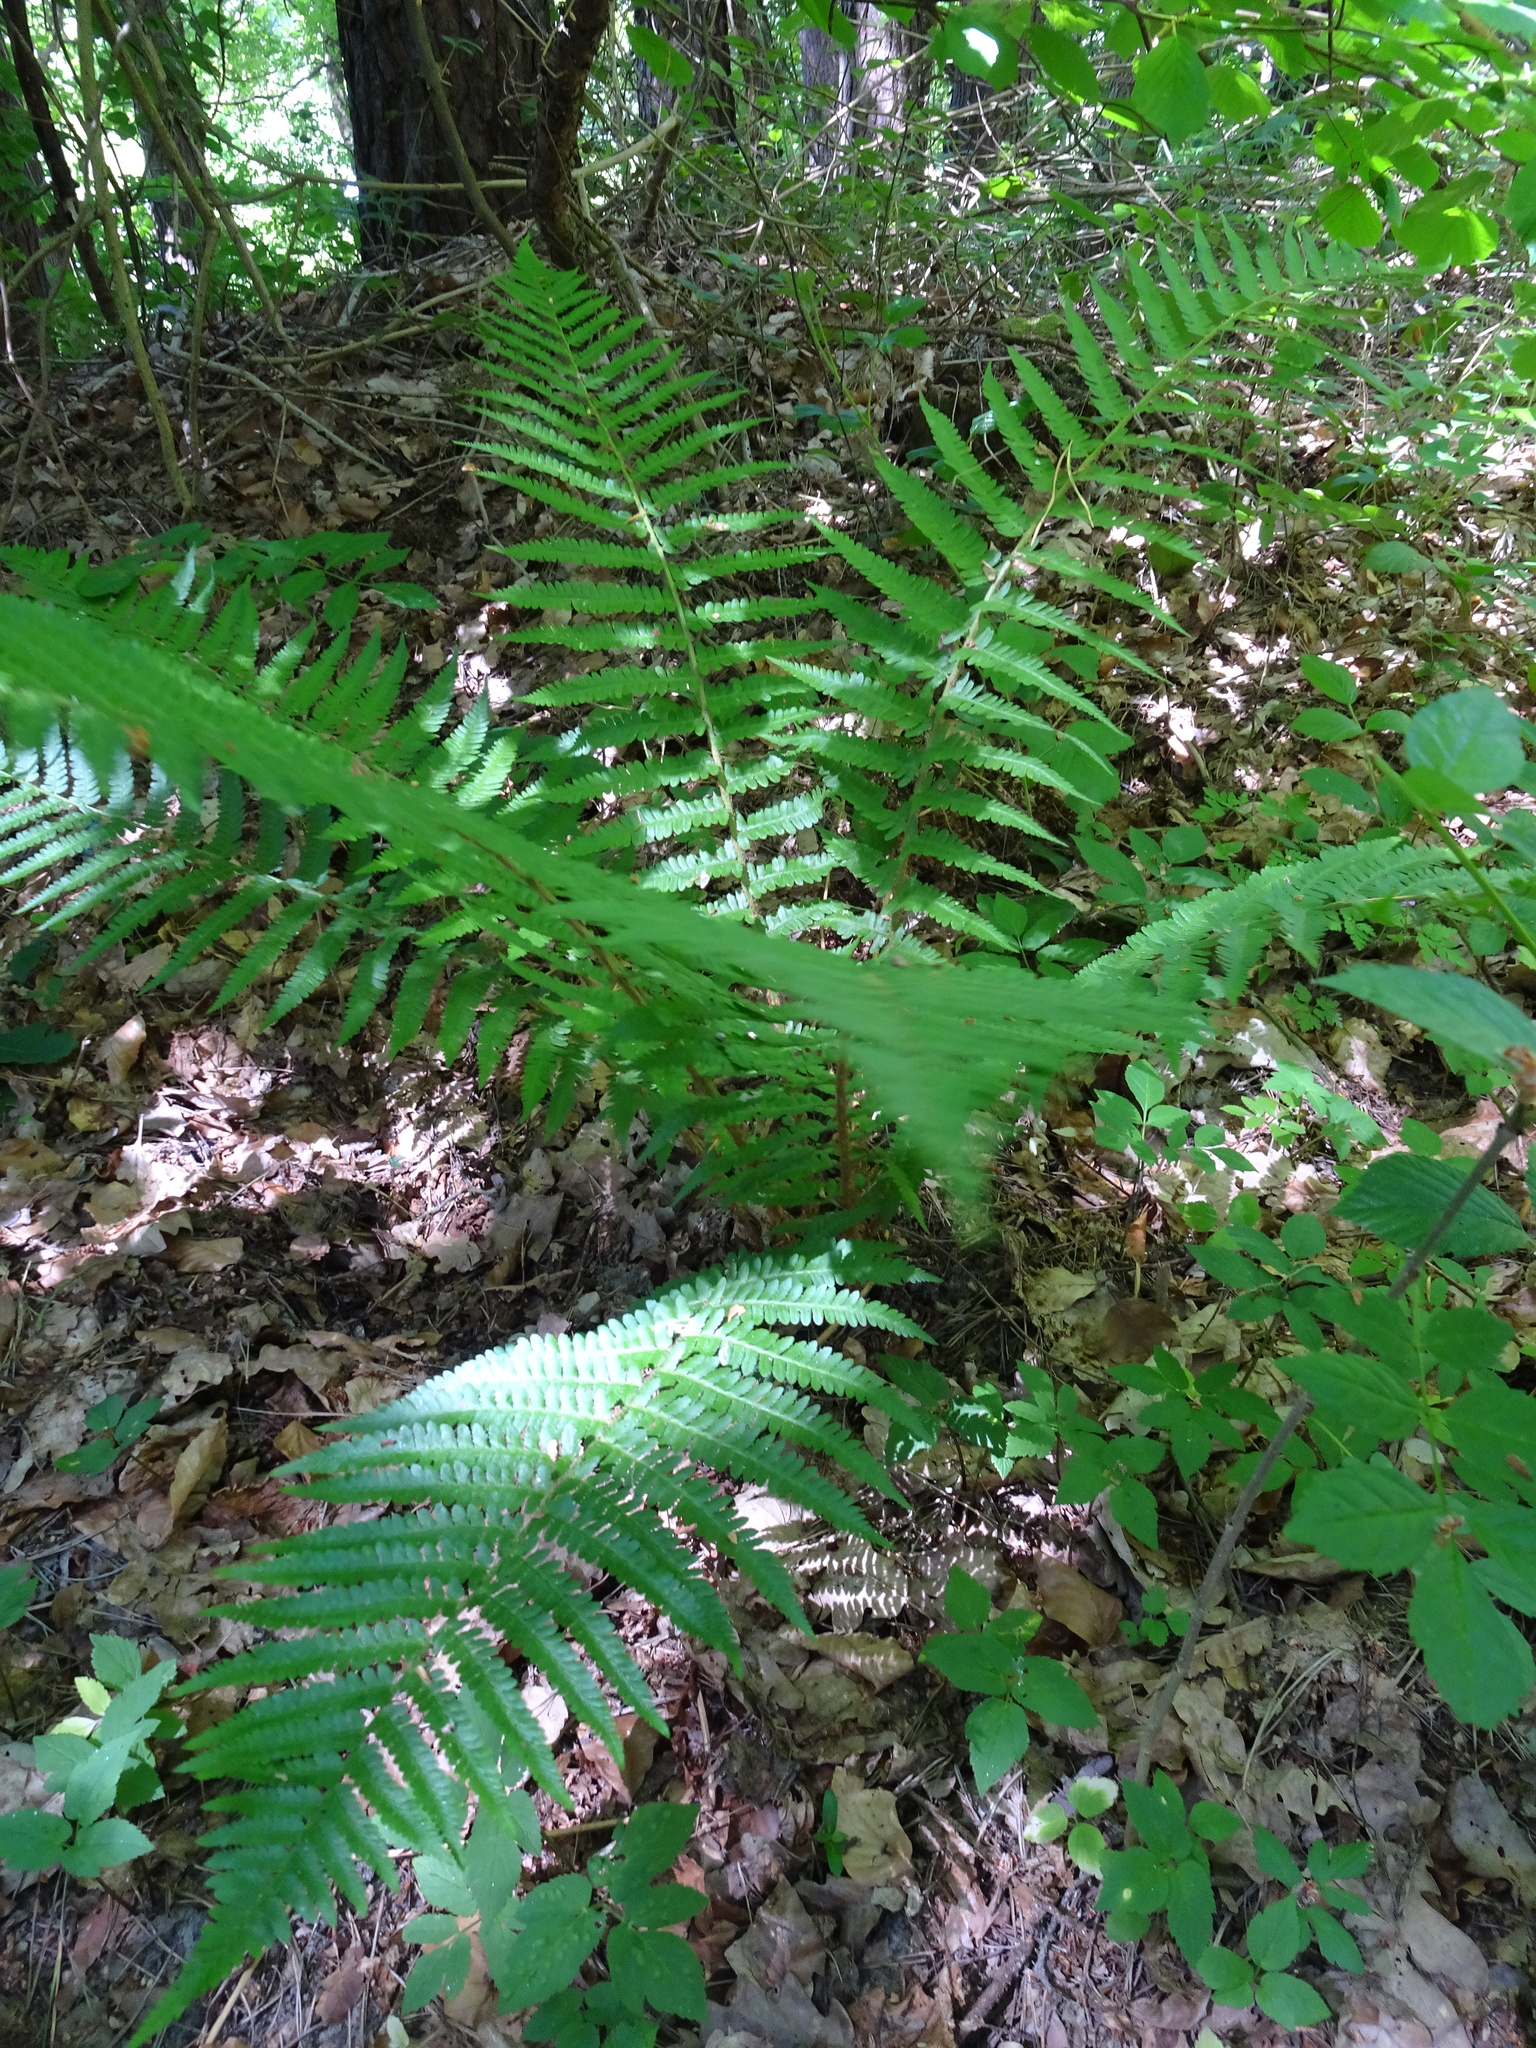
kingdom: Plantae
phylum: Tracheophyta
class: Polypodiopsida
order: Polypodiales
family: Dryopteridaceae
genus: Dryopteris
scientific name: Dryopteris filix-mas
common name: Male fern
